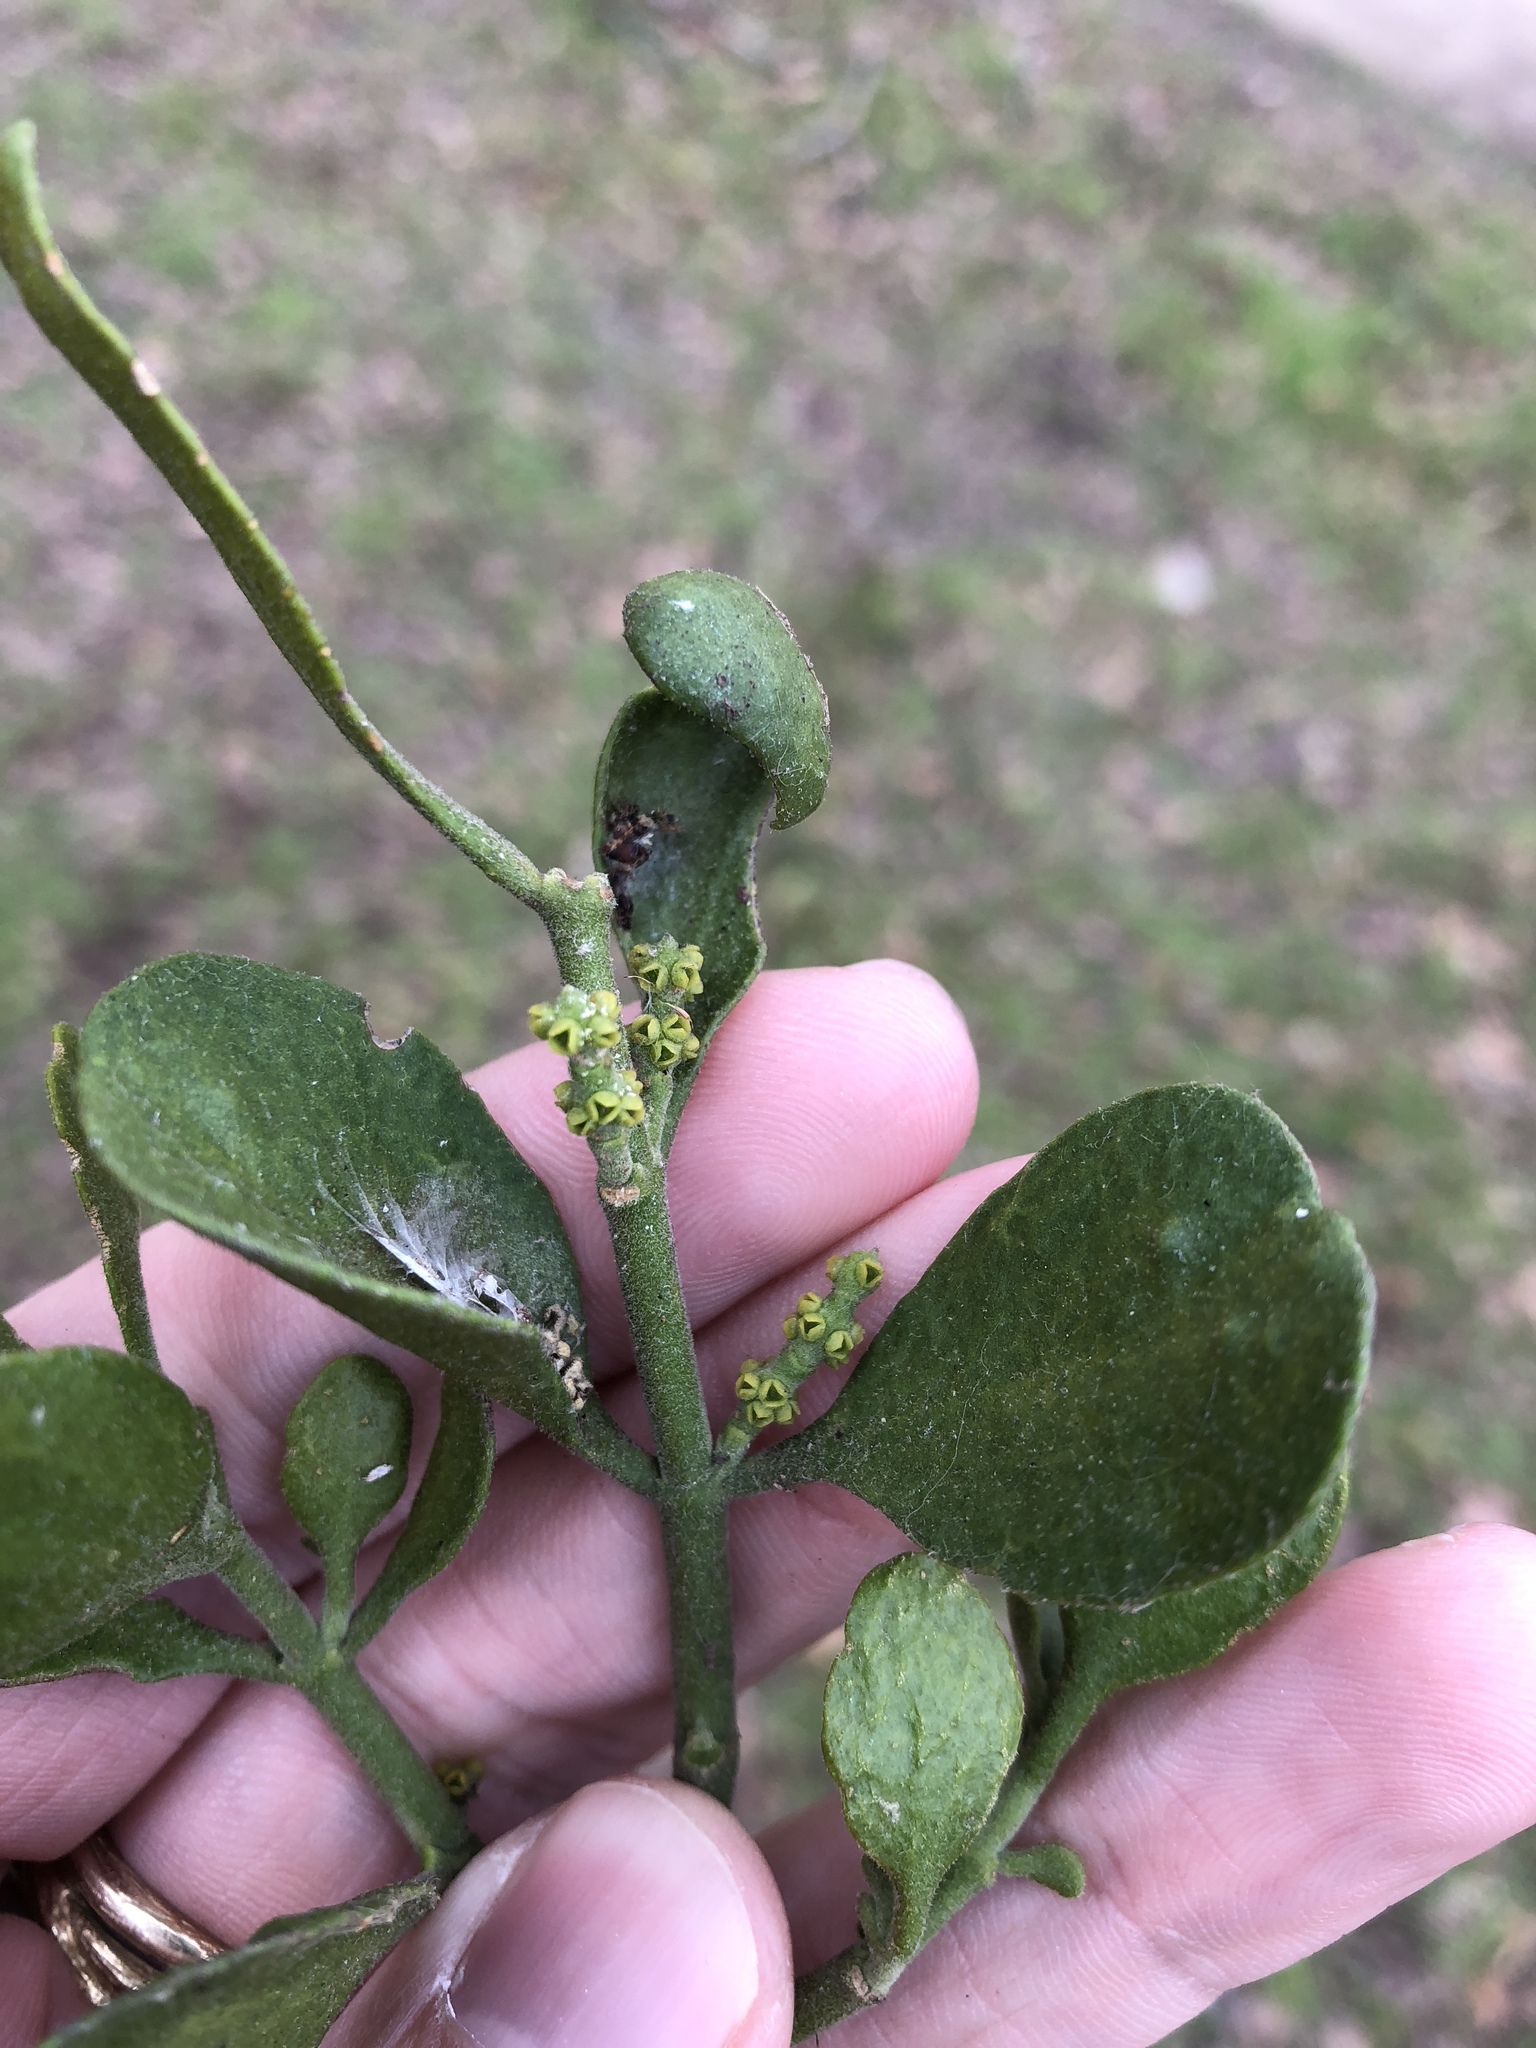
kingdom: Plantae
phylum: Tracheophyta
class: Magnoliopsida
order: Santalales
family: Viscaceae
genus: Phoradendron
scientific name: Phoradendron leucarpum
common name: Pacific mistletoe
